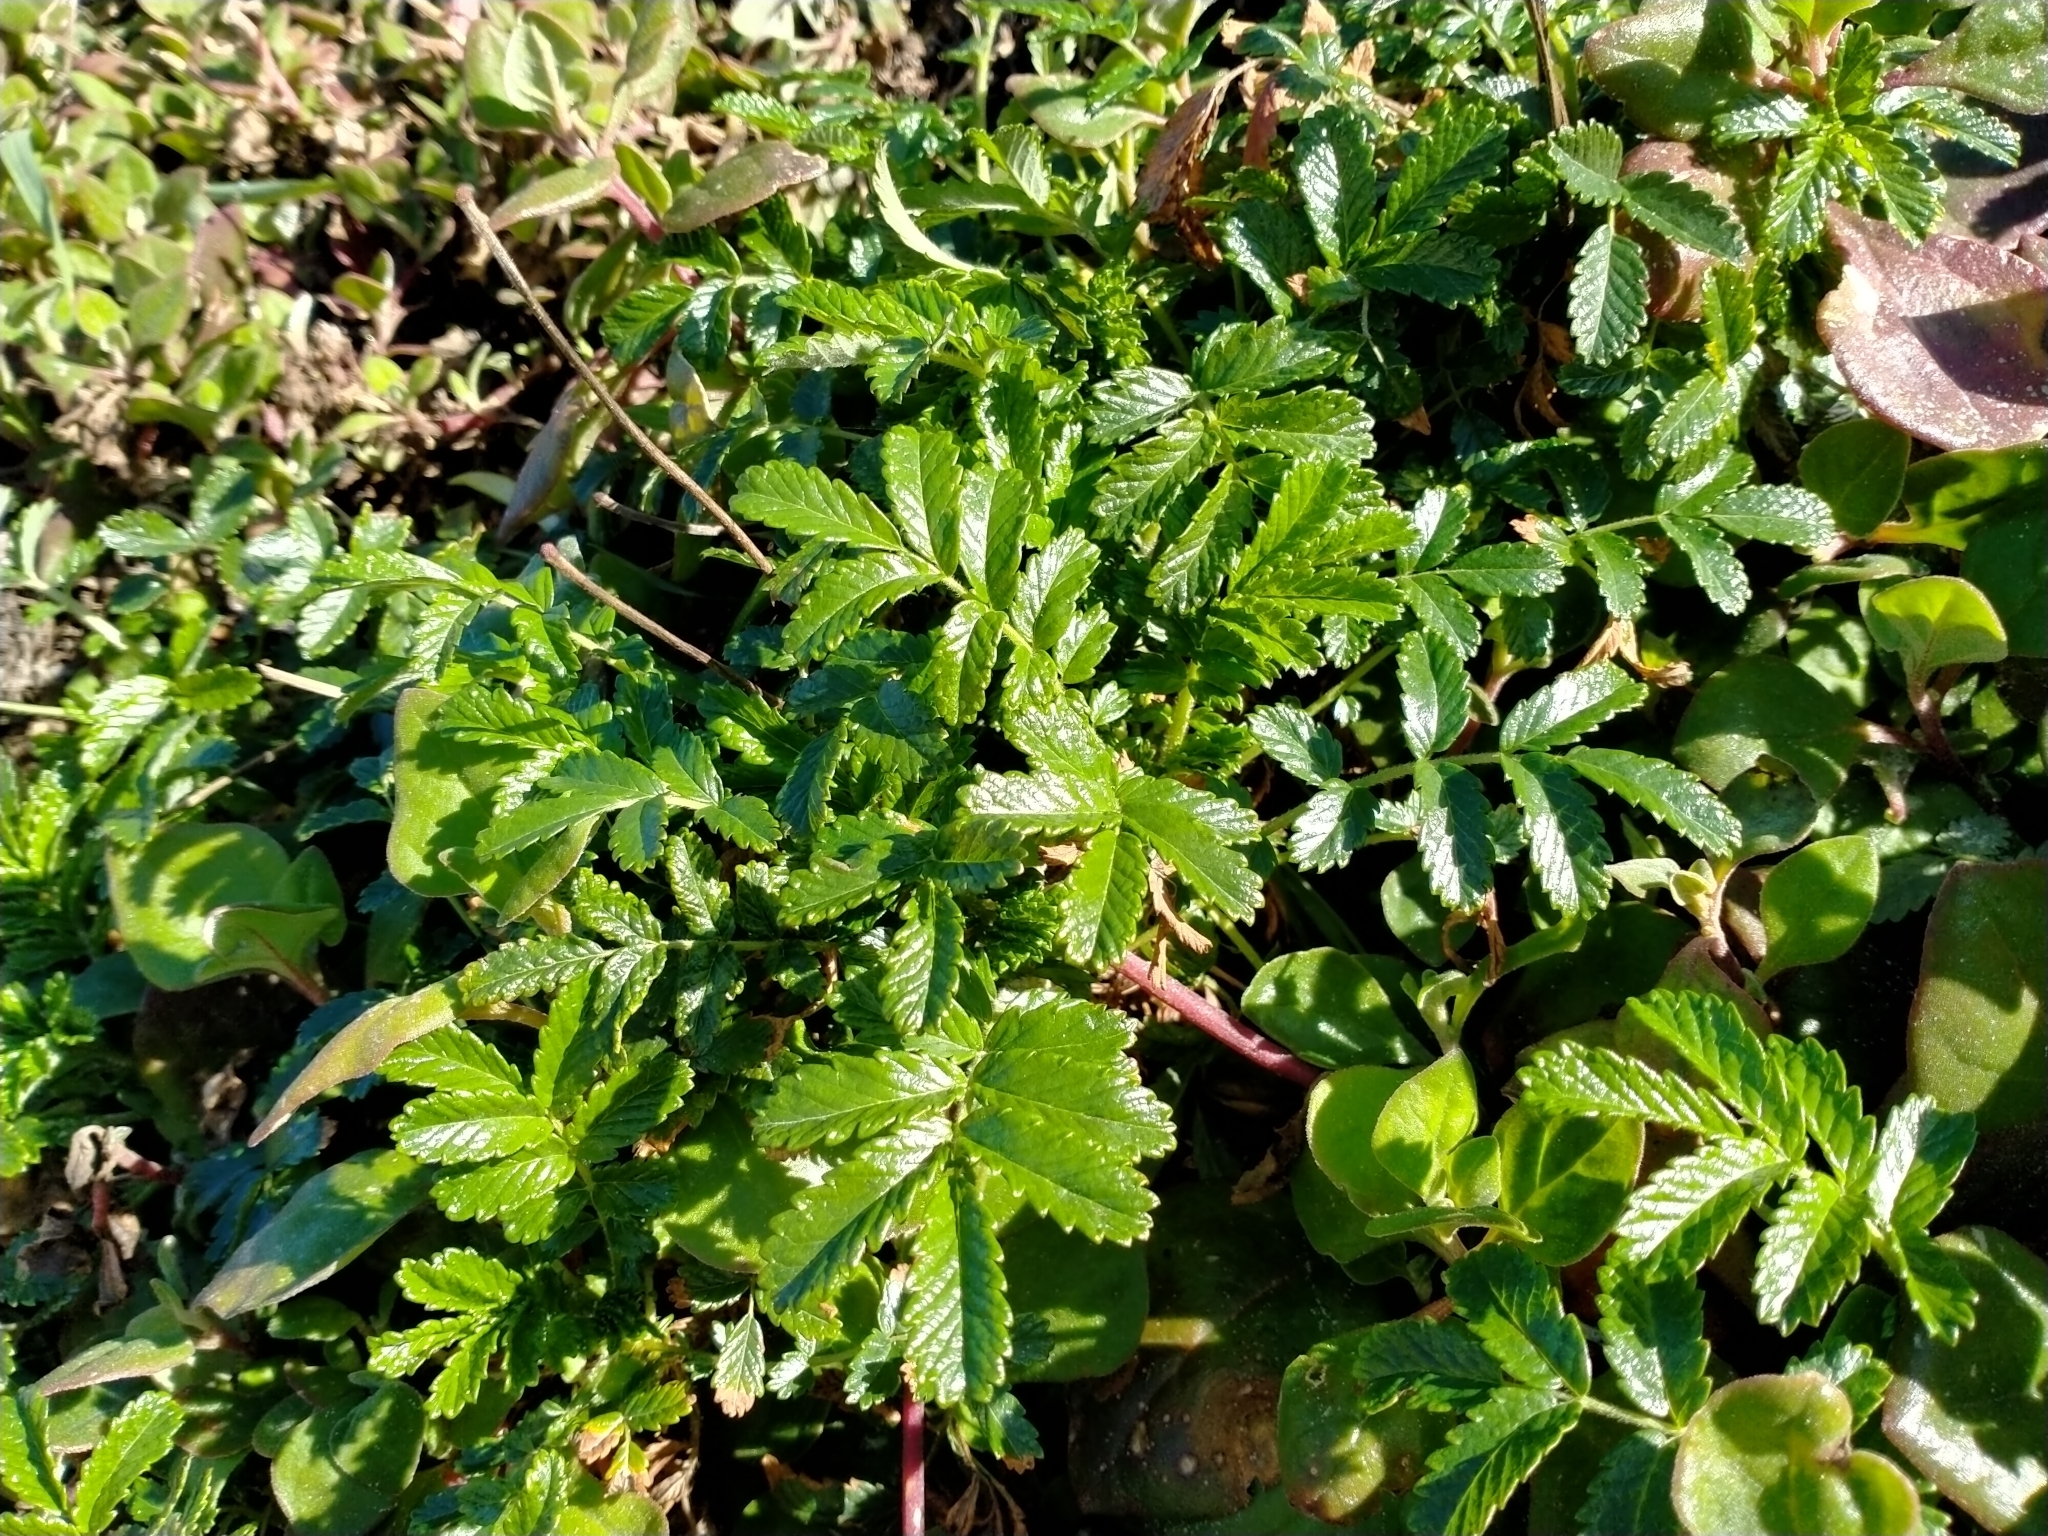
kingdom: Plantae
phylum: Tracheophyta
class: Magnoliopsida
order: Rosales
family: Rosaceae
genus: Acaena
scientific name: Acaena pallida
